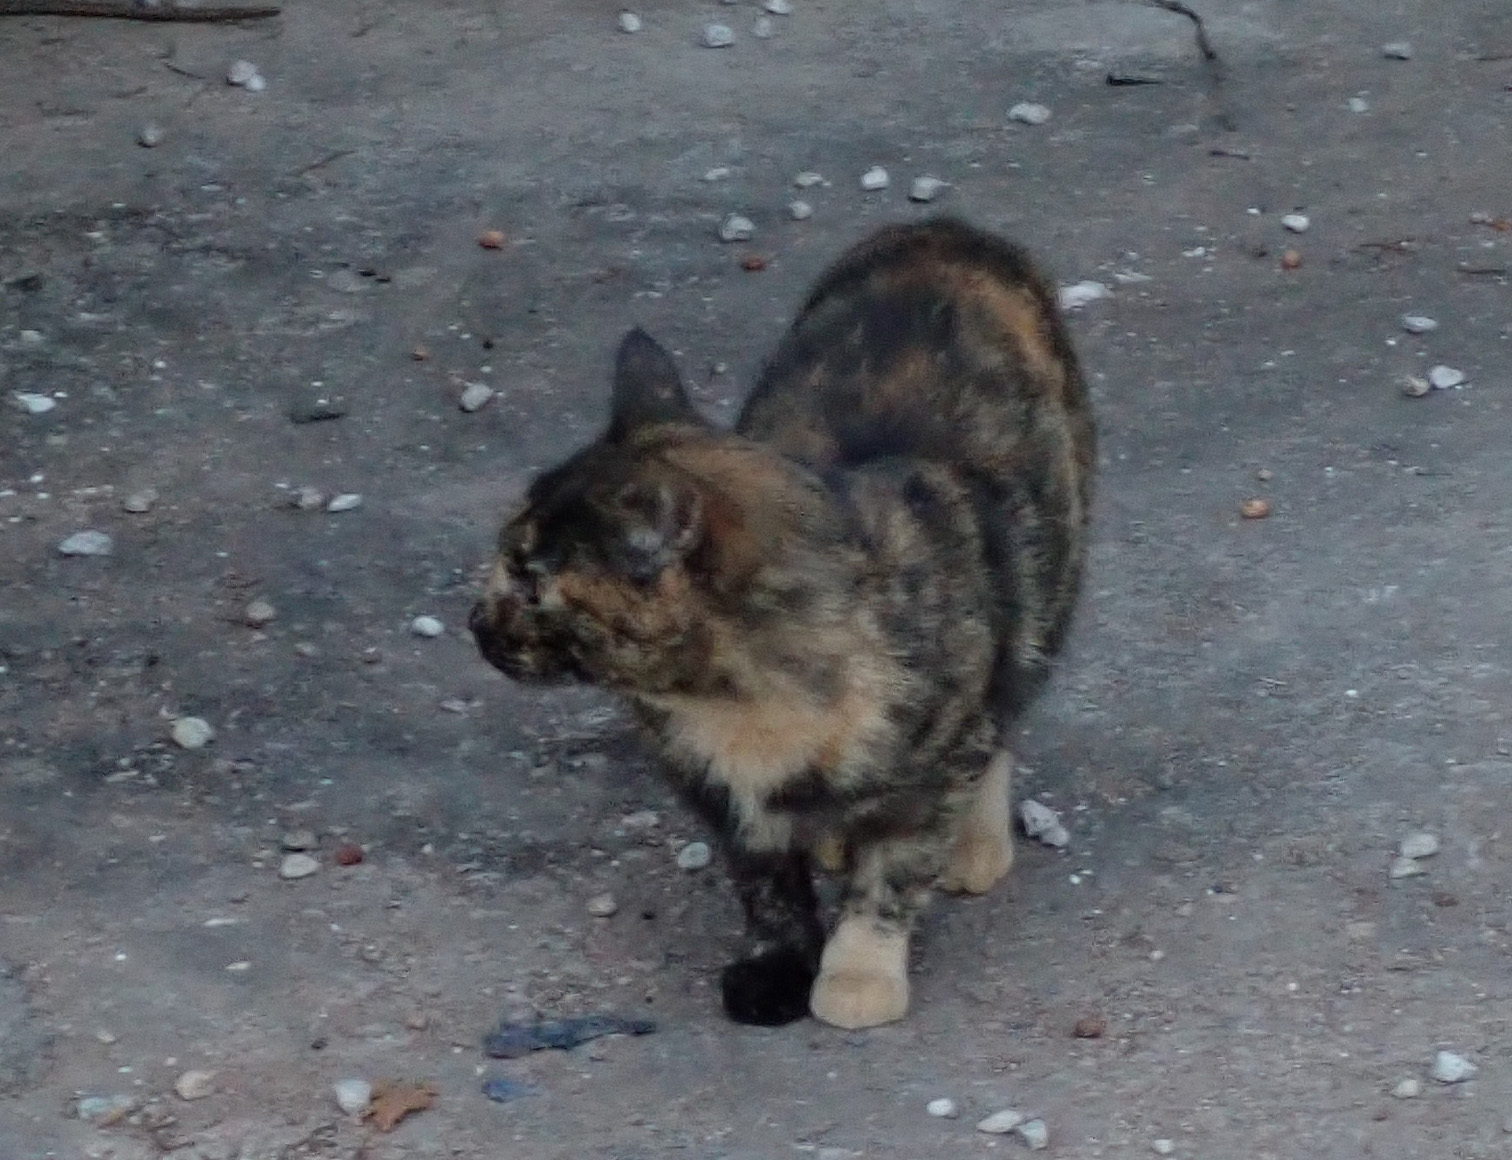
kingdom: Animalia
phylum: Chordata
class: Mammalia
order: Carnivora
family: Felidae
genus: Felis
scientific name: Felis catus
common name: Domestic cat
